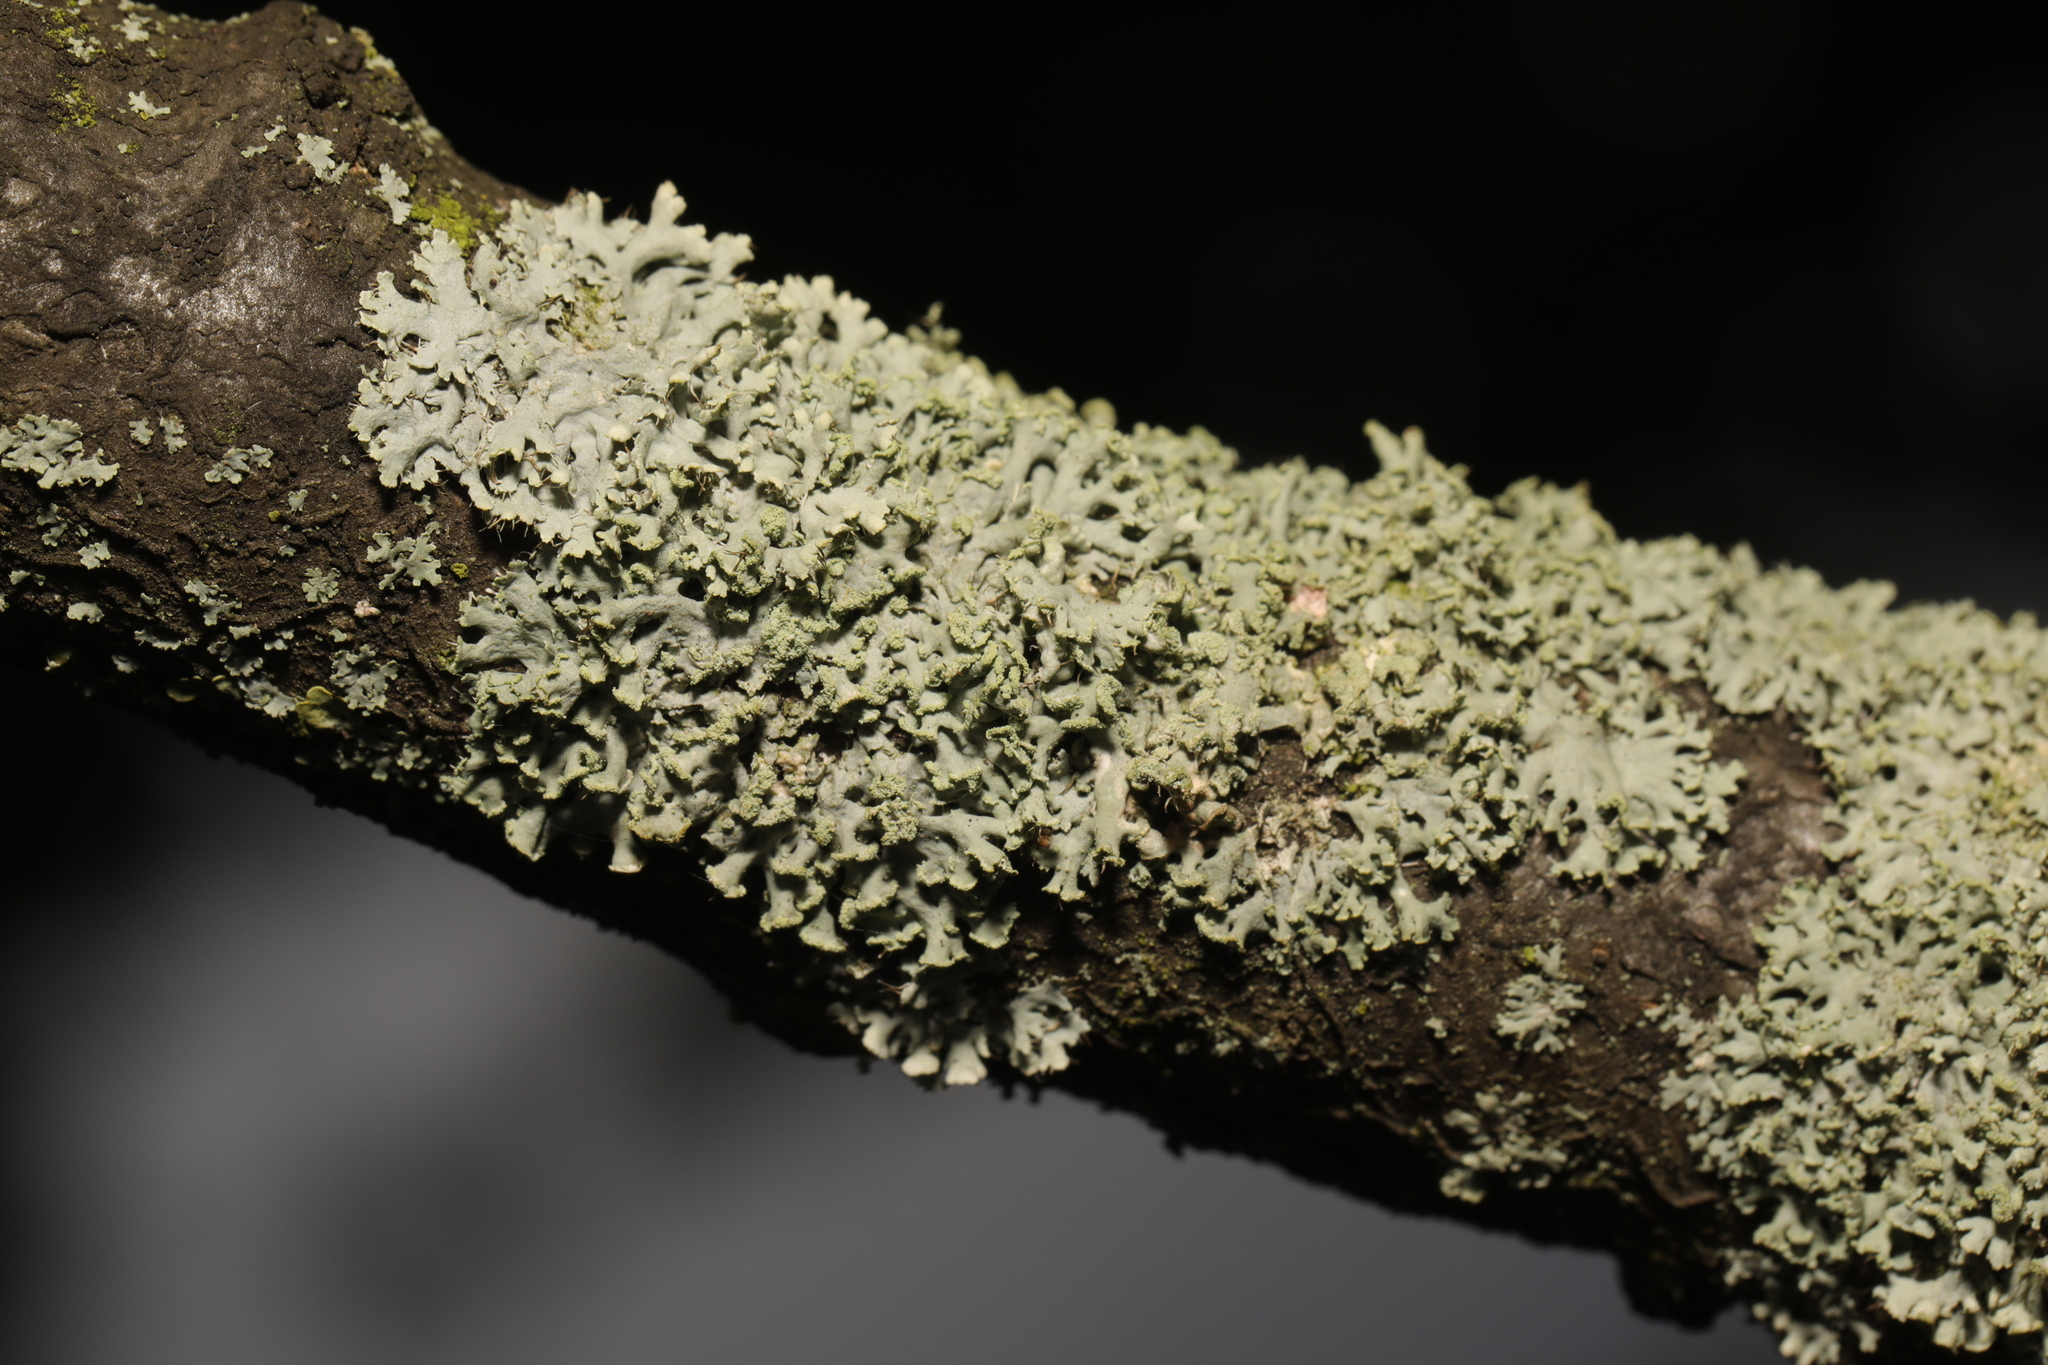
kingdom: Fungi
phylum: Ascomycota
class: Lecanoromycetes
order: Caliciales
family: Physciaceae
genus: Physcia
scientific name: Physcia tenella
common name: Fringed rosette lichen
